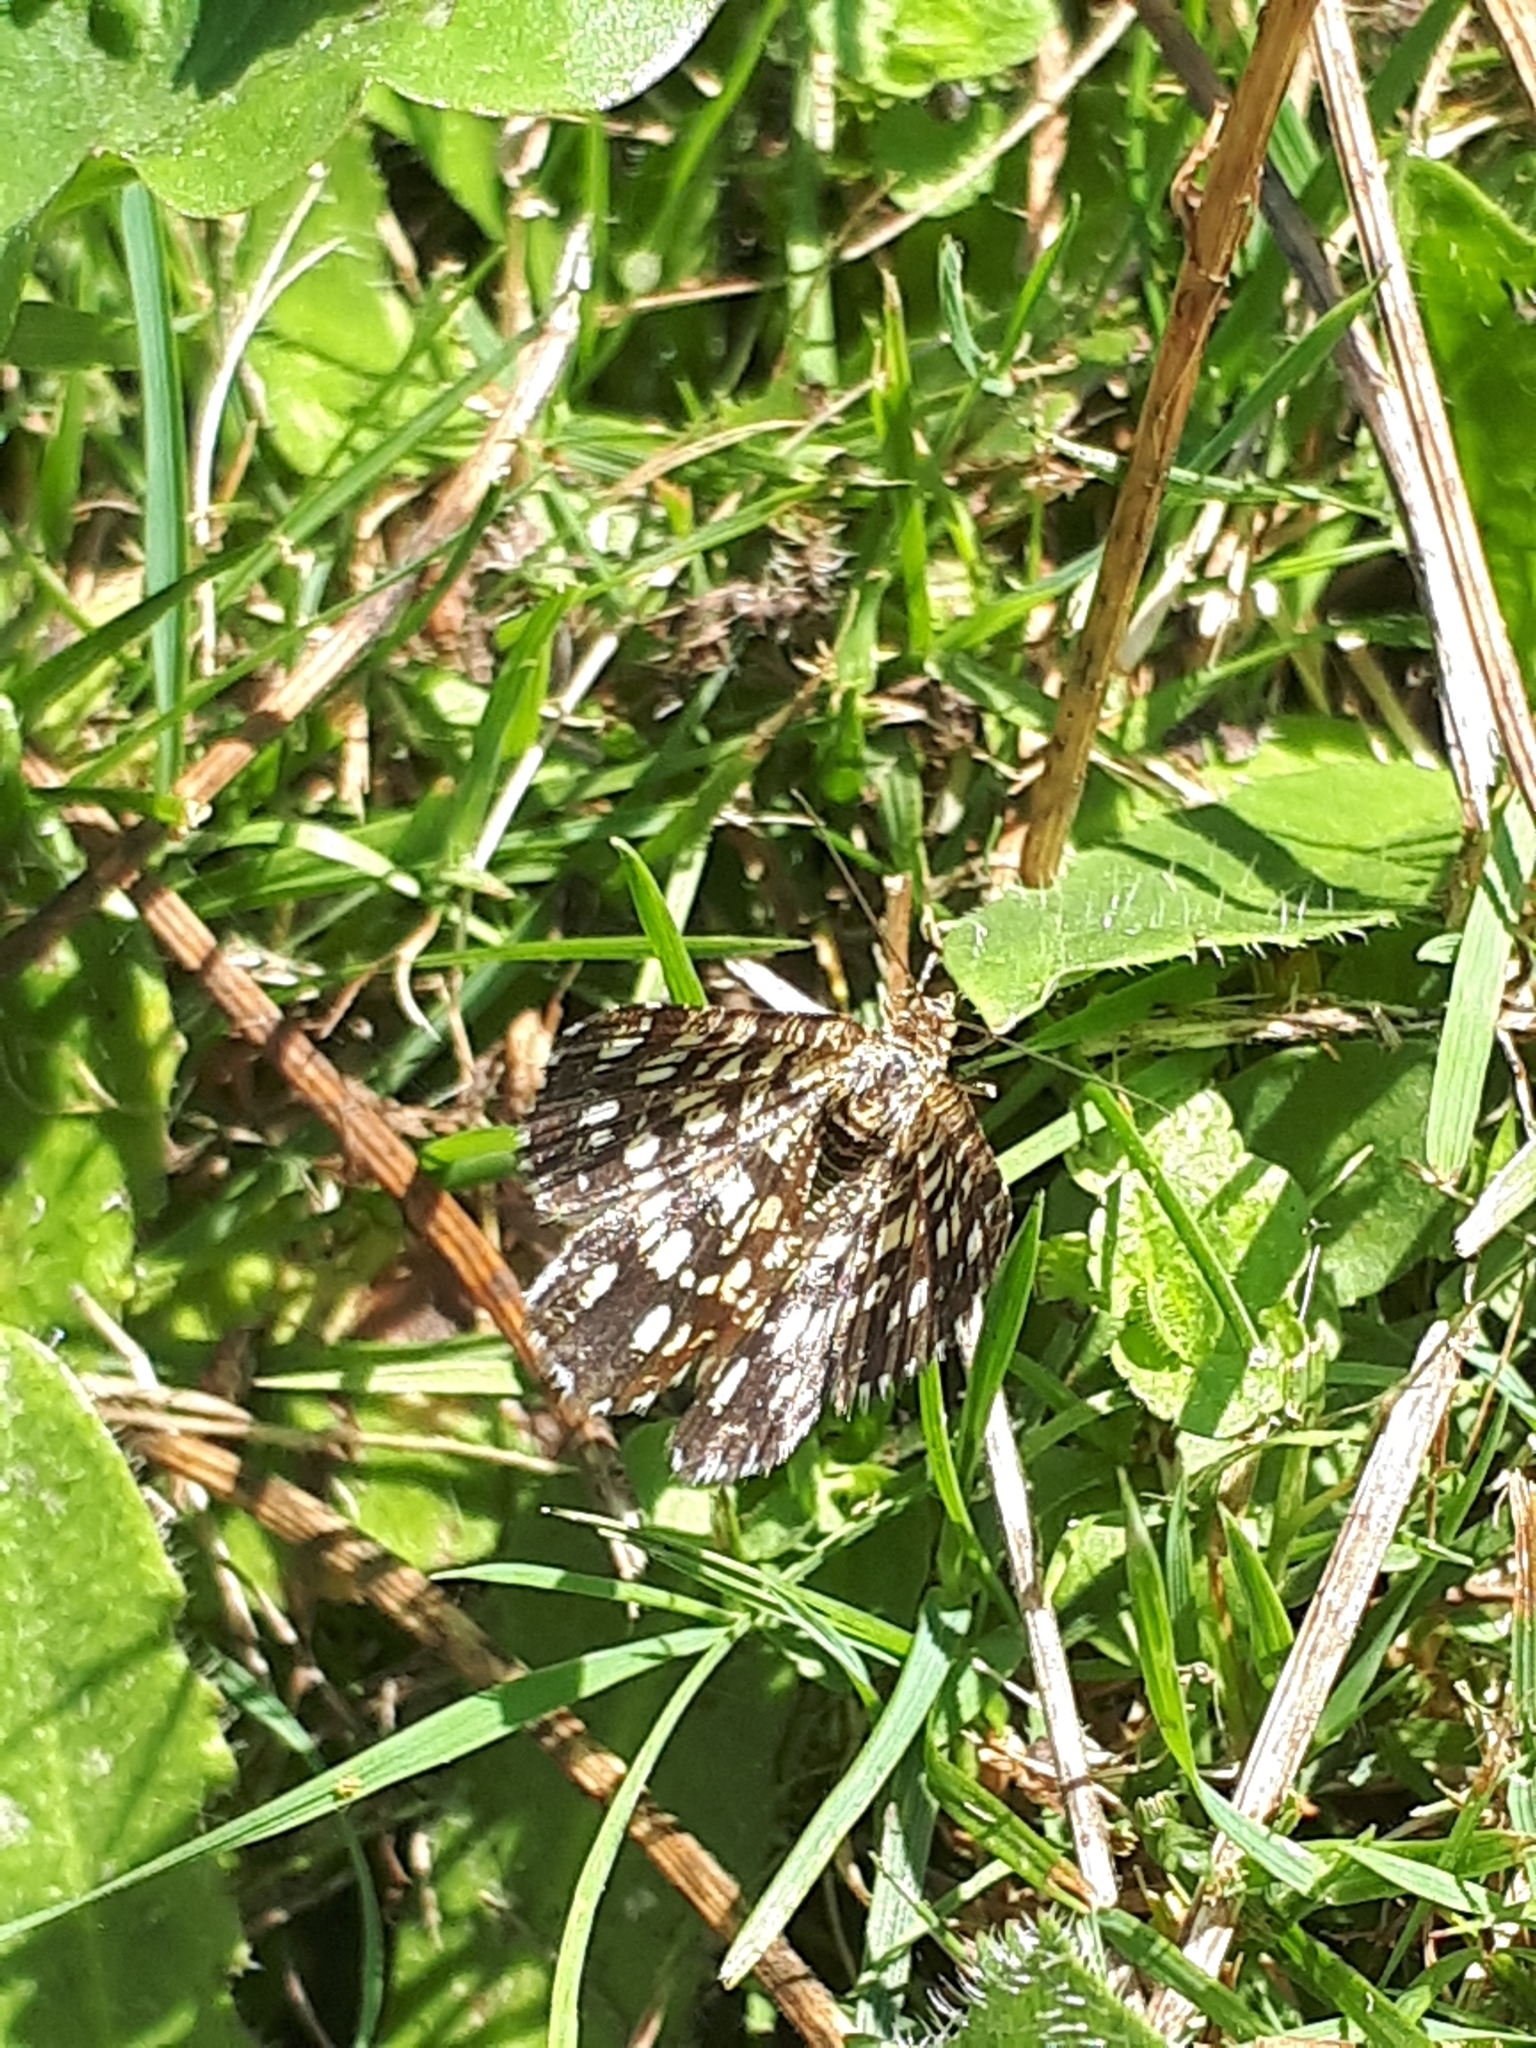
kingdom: Animalia
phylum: Arthropoda
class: Insecta
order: Lepidoptera
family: Geometridae
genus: Chiasmia
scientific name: Chiasmia clathrata
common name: Latticed heath
